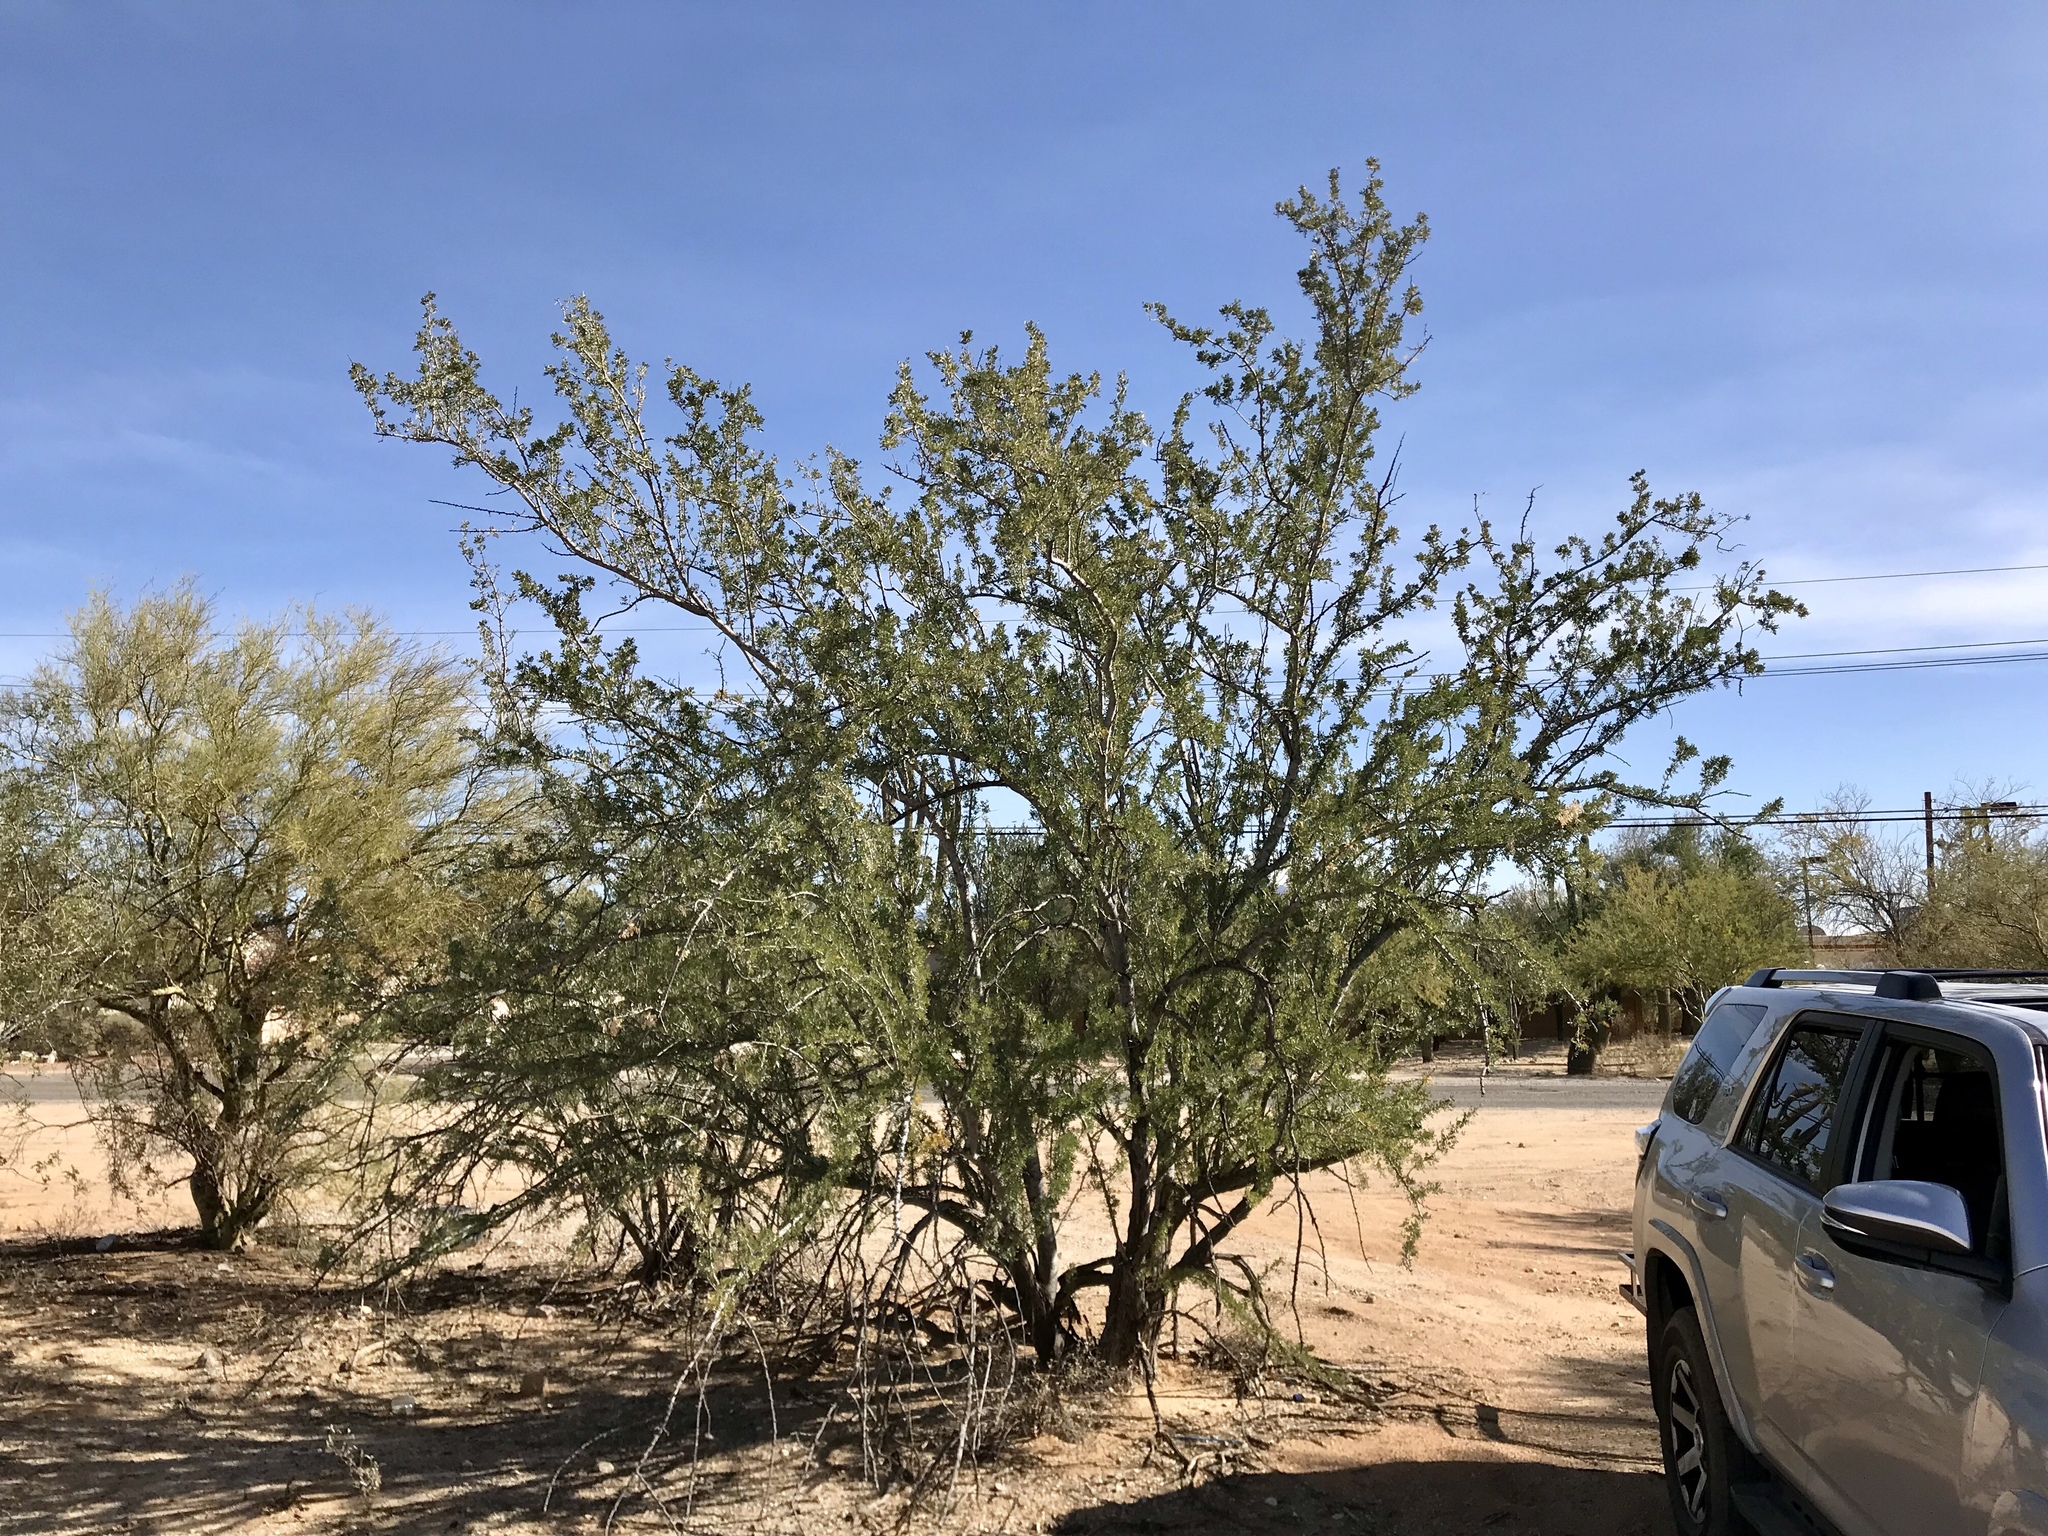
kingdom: Plantae
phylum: Tracheophyta
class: Magnoliopsida
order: Fabales
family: Fabaceae
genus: Olneya
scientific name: Olneya tesota
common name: Desert ironwood
